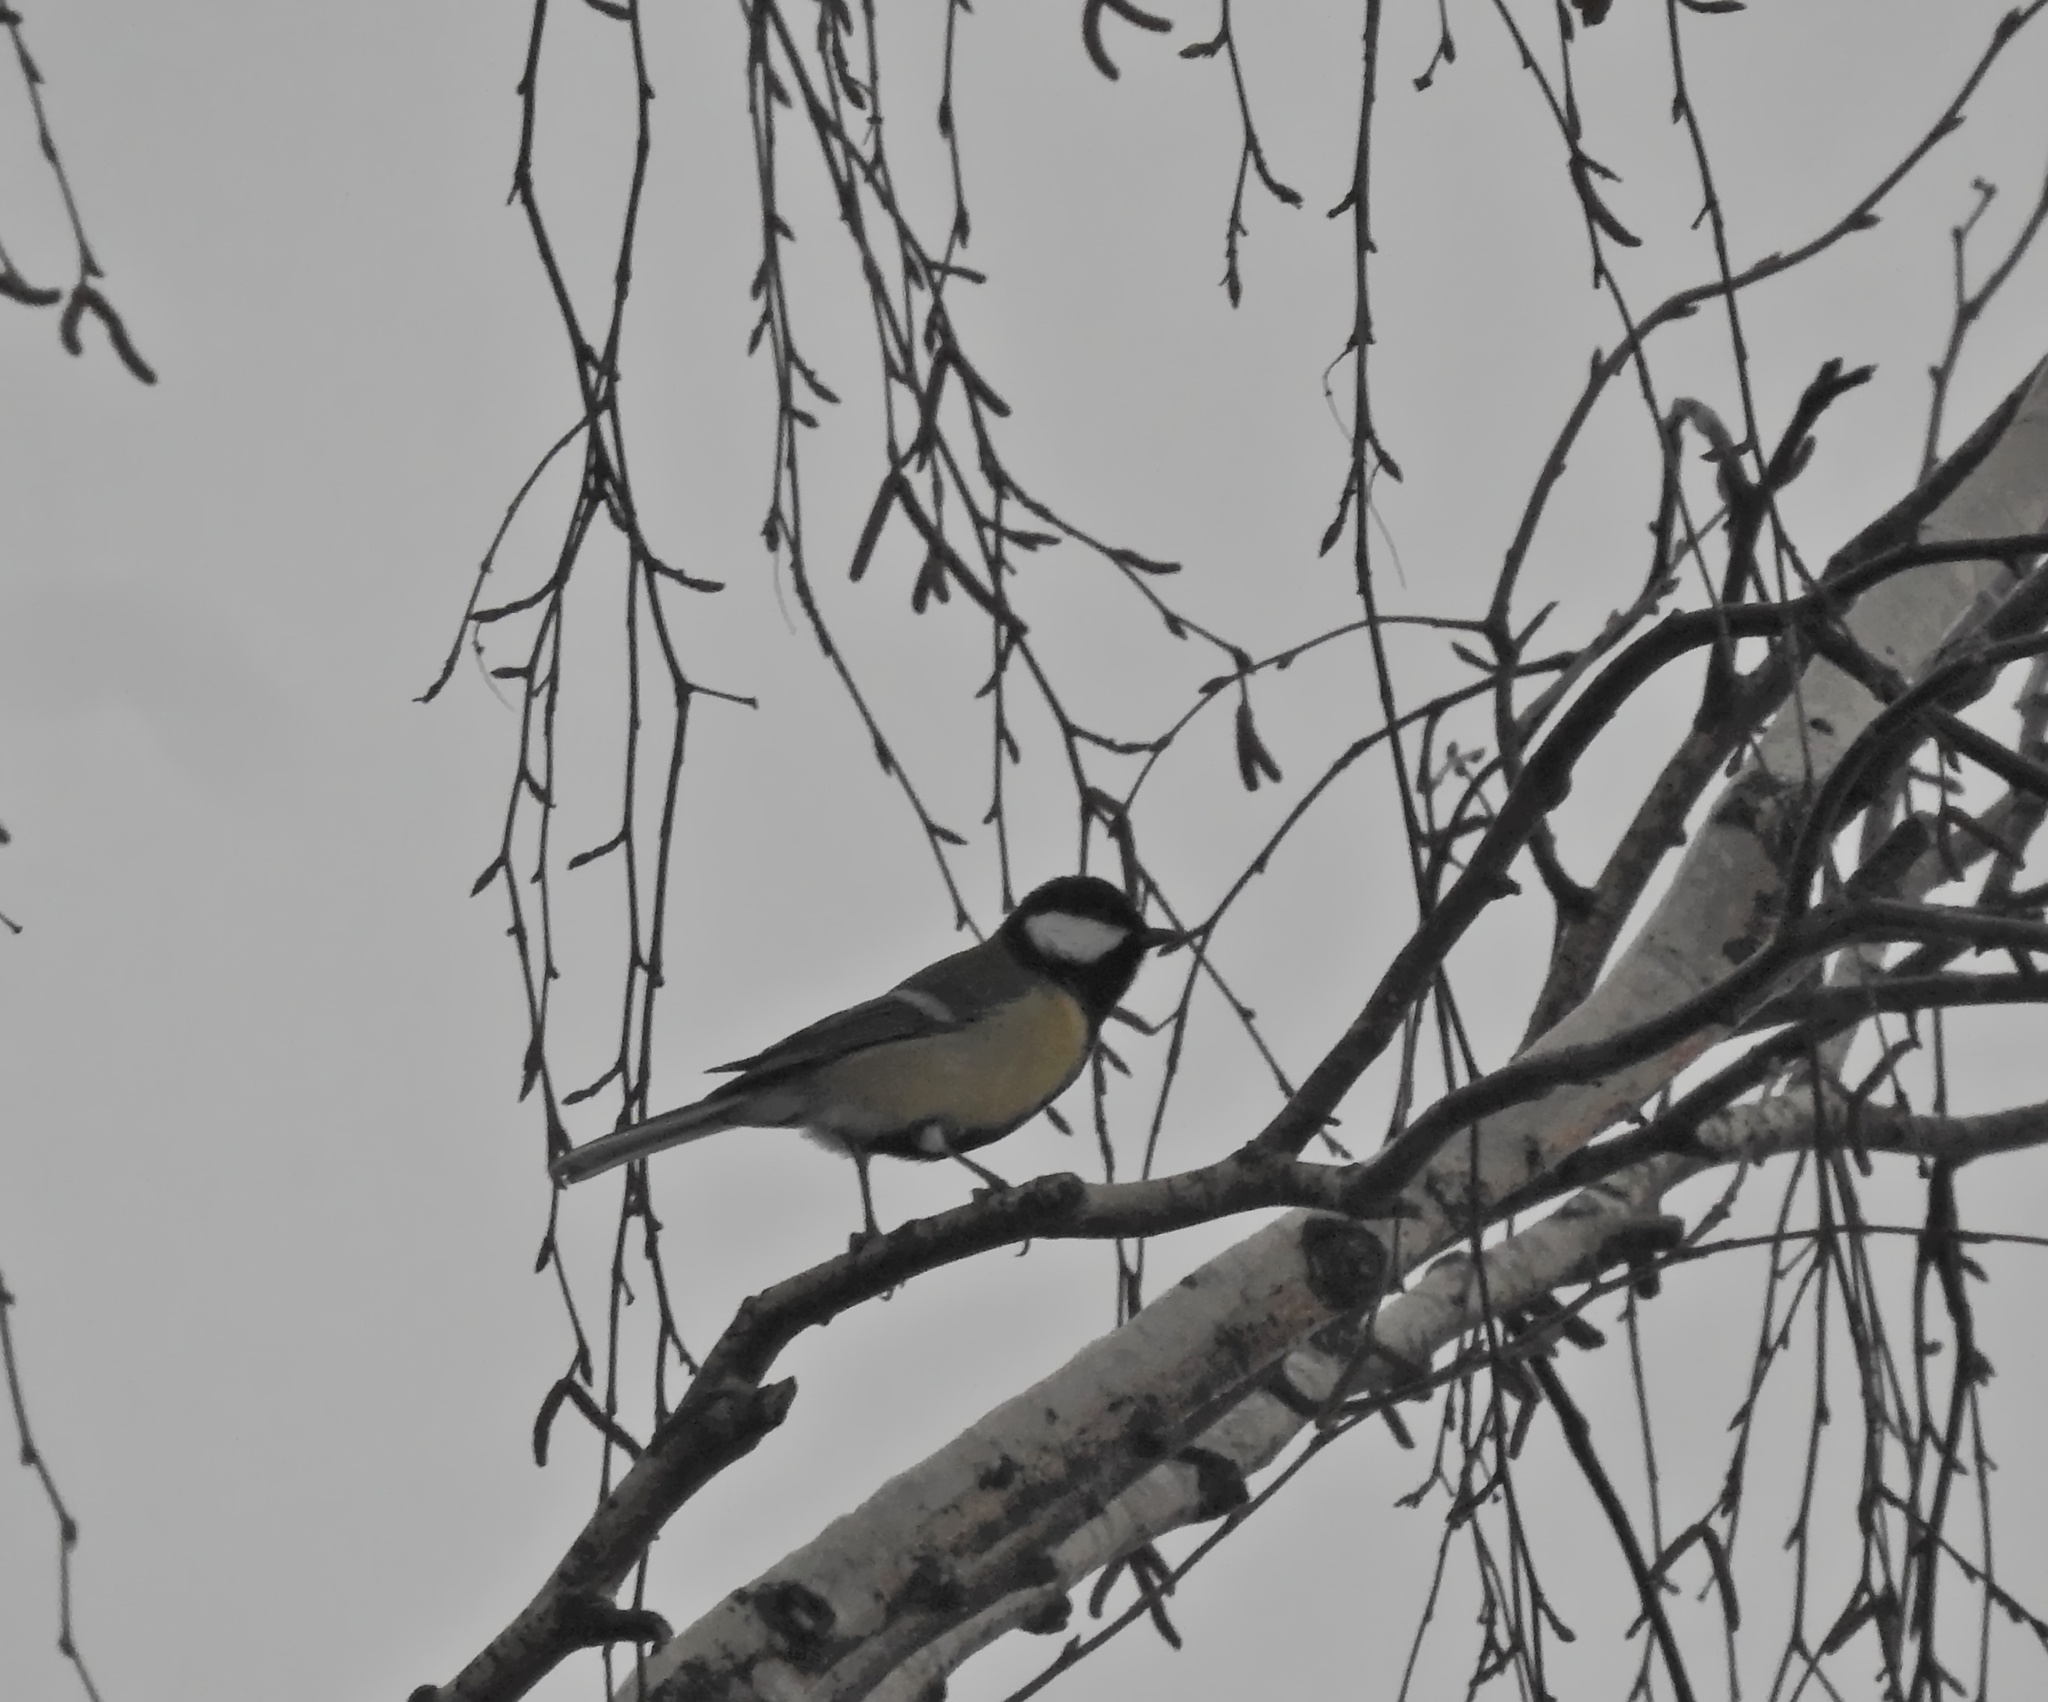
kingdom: Animalia
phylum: Chordata
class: Aves
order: Passeriformes
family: Paridae
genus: Parus
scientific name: Parus major
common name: Great tit
